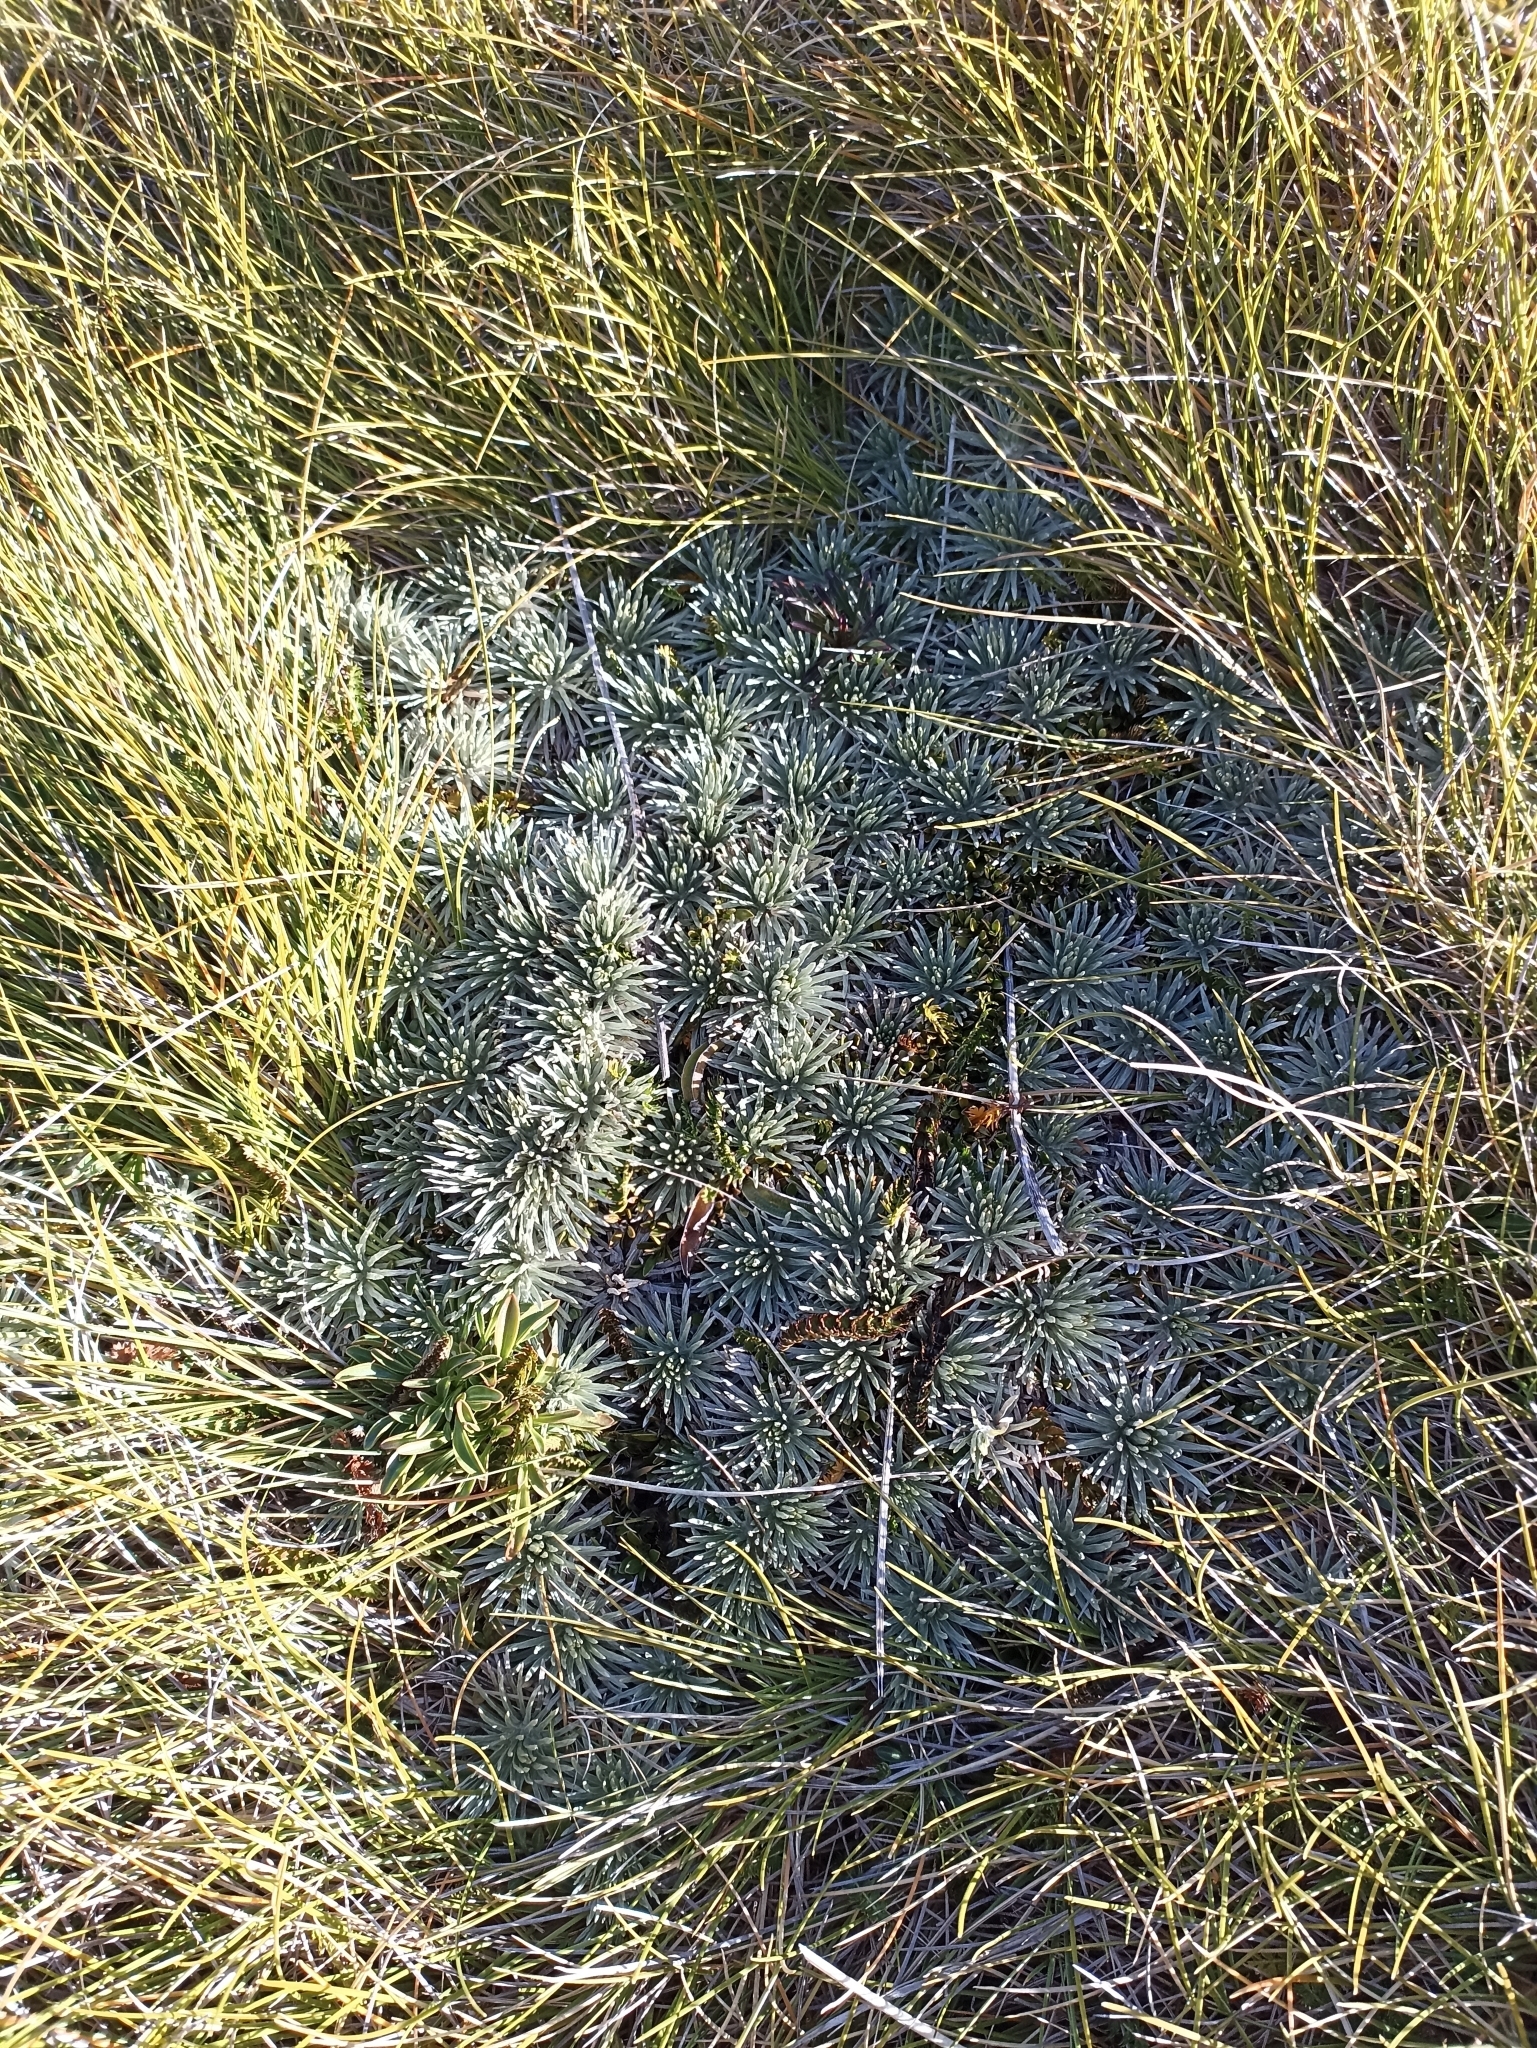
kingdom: Plantae
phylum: Tracheophyta
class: Magnoliopsida
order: Asterales
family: Asteraceae
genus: Celmisia
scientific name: Celmisia sessiliflora
